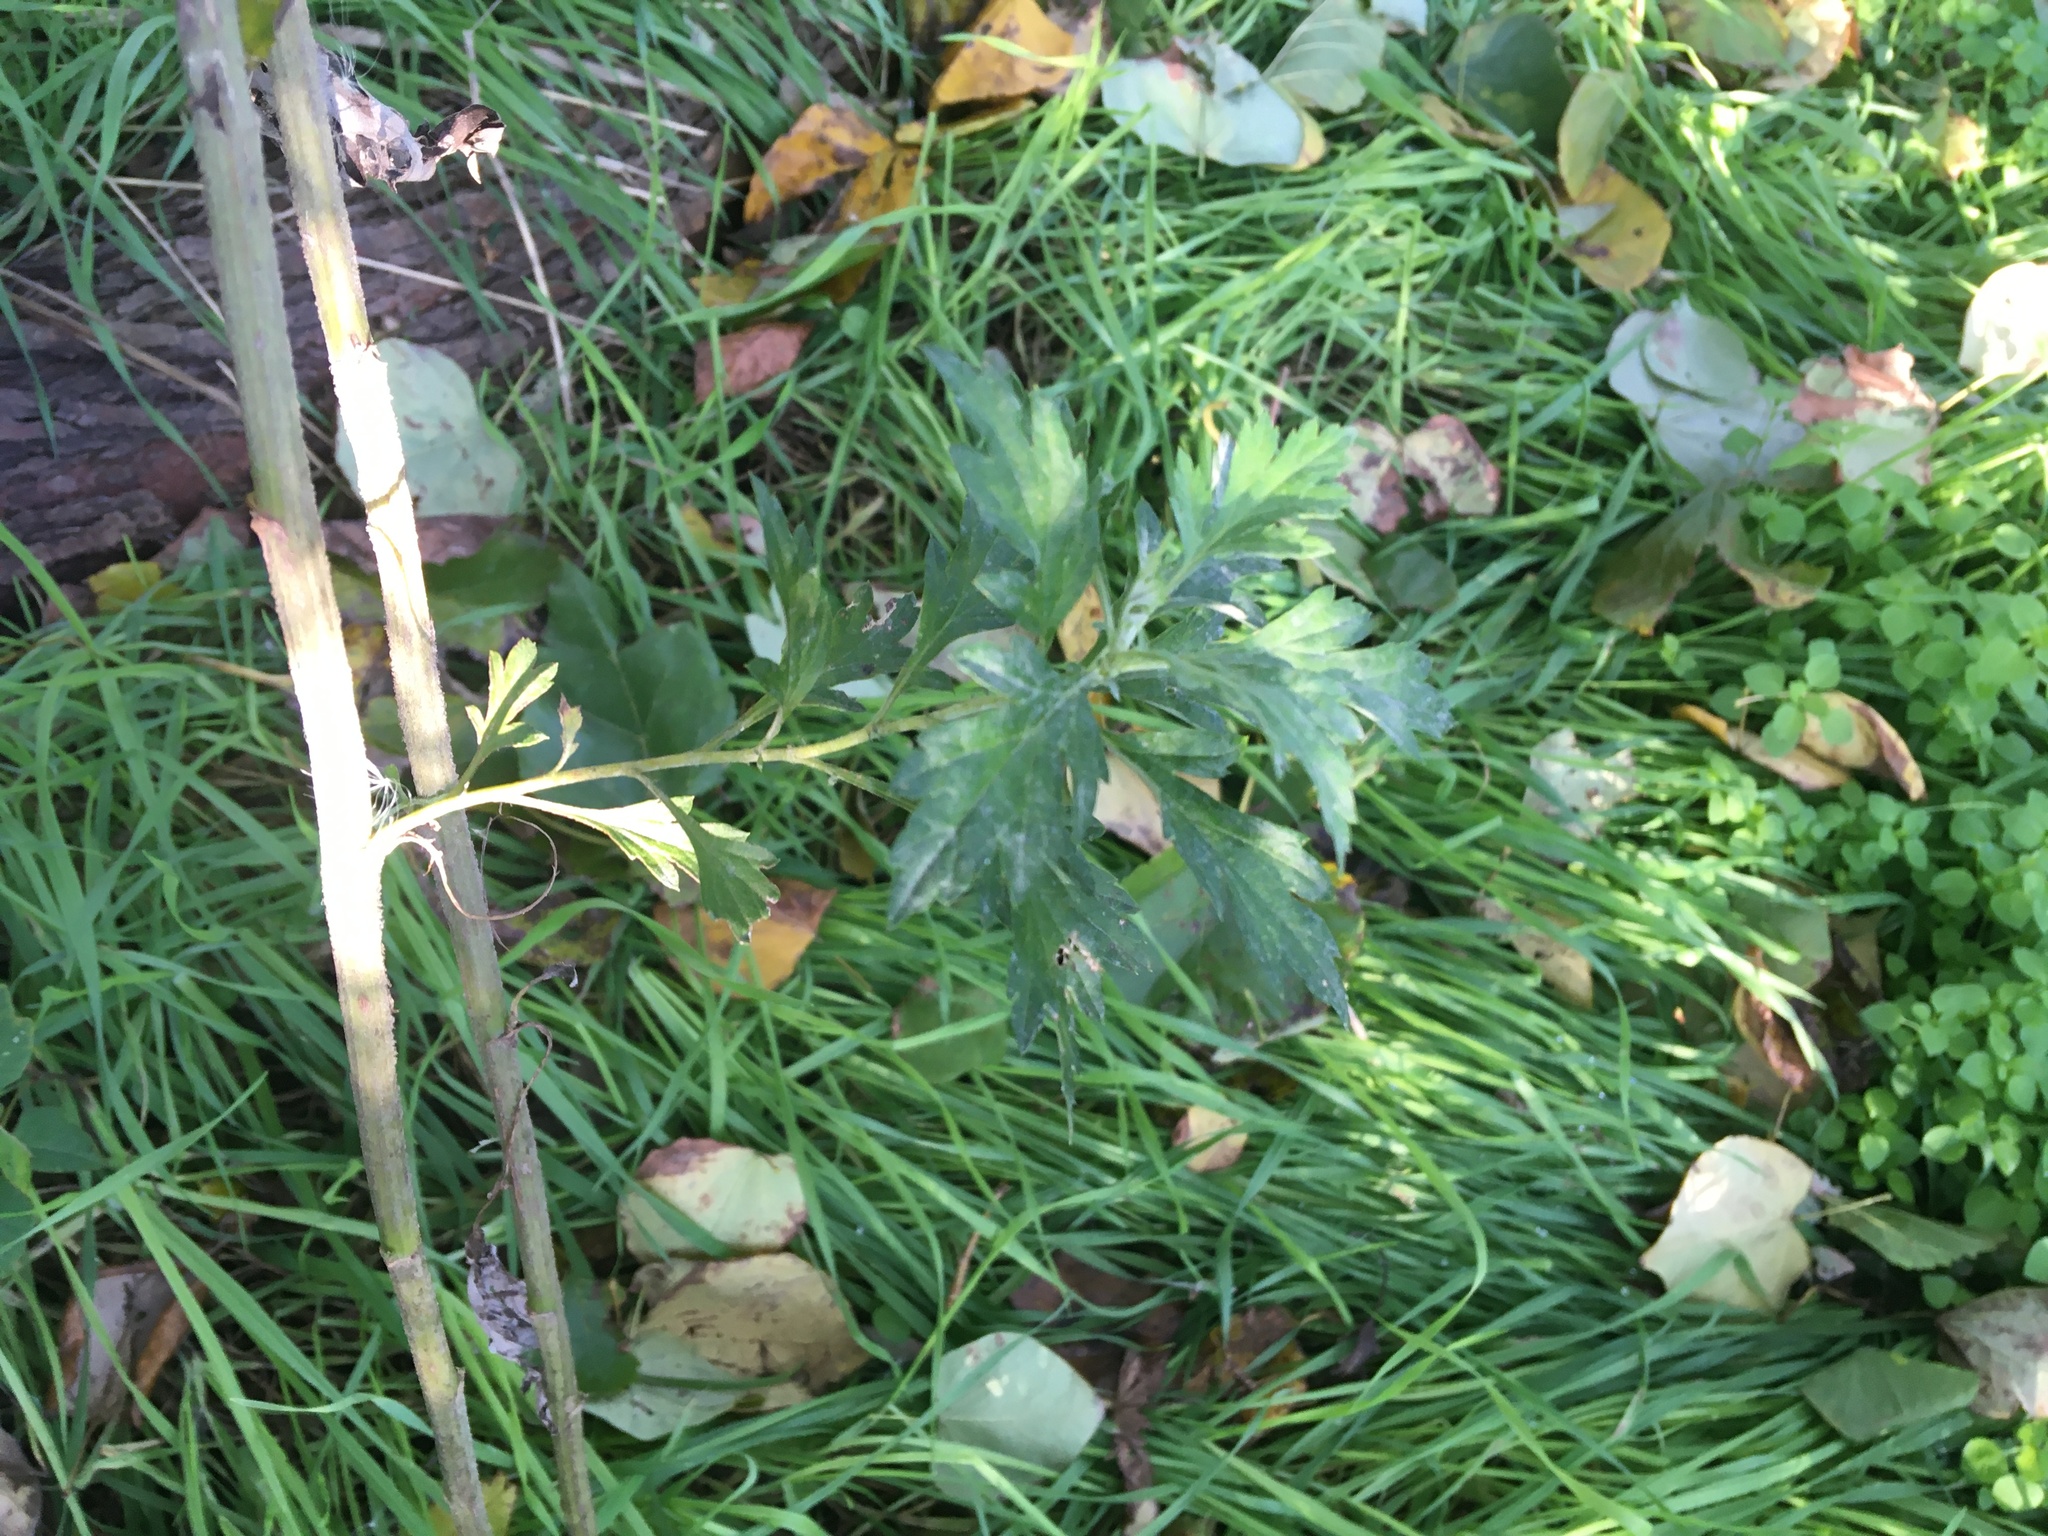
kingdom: Plantae
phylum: Tracheophyta
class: Magnoliopsida
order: Asterales
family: Asteraceae
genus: Artemisia
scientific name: Artemisia vulgaris
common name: Mugwort
